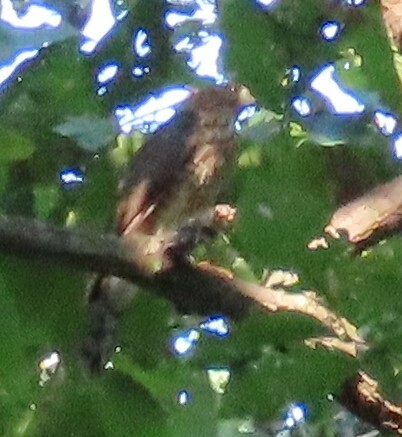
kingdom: Animalia
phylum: Chordata
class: Aves
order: Accipitriformes
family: Accipitridae
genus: Accipiter
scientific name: Accipiter cooperii
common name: Cooper's hawk
